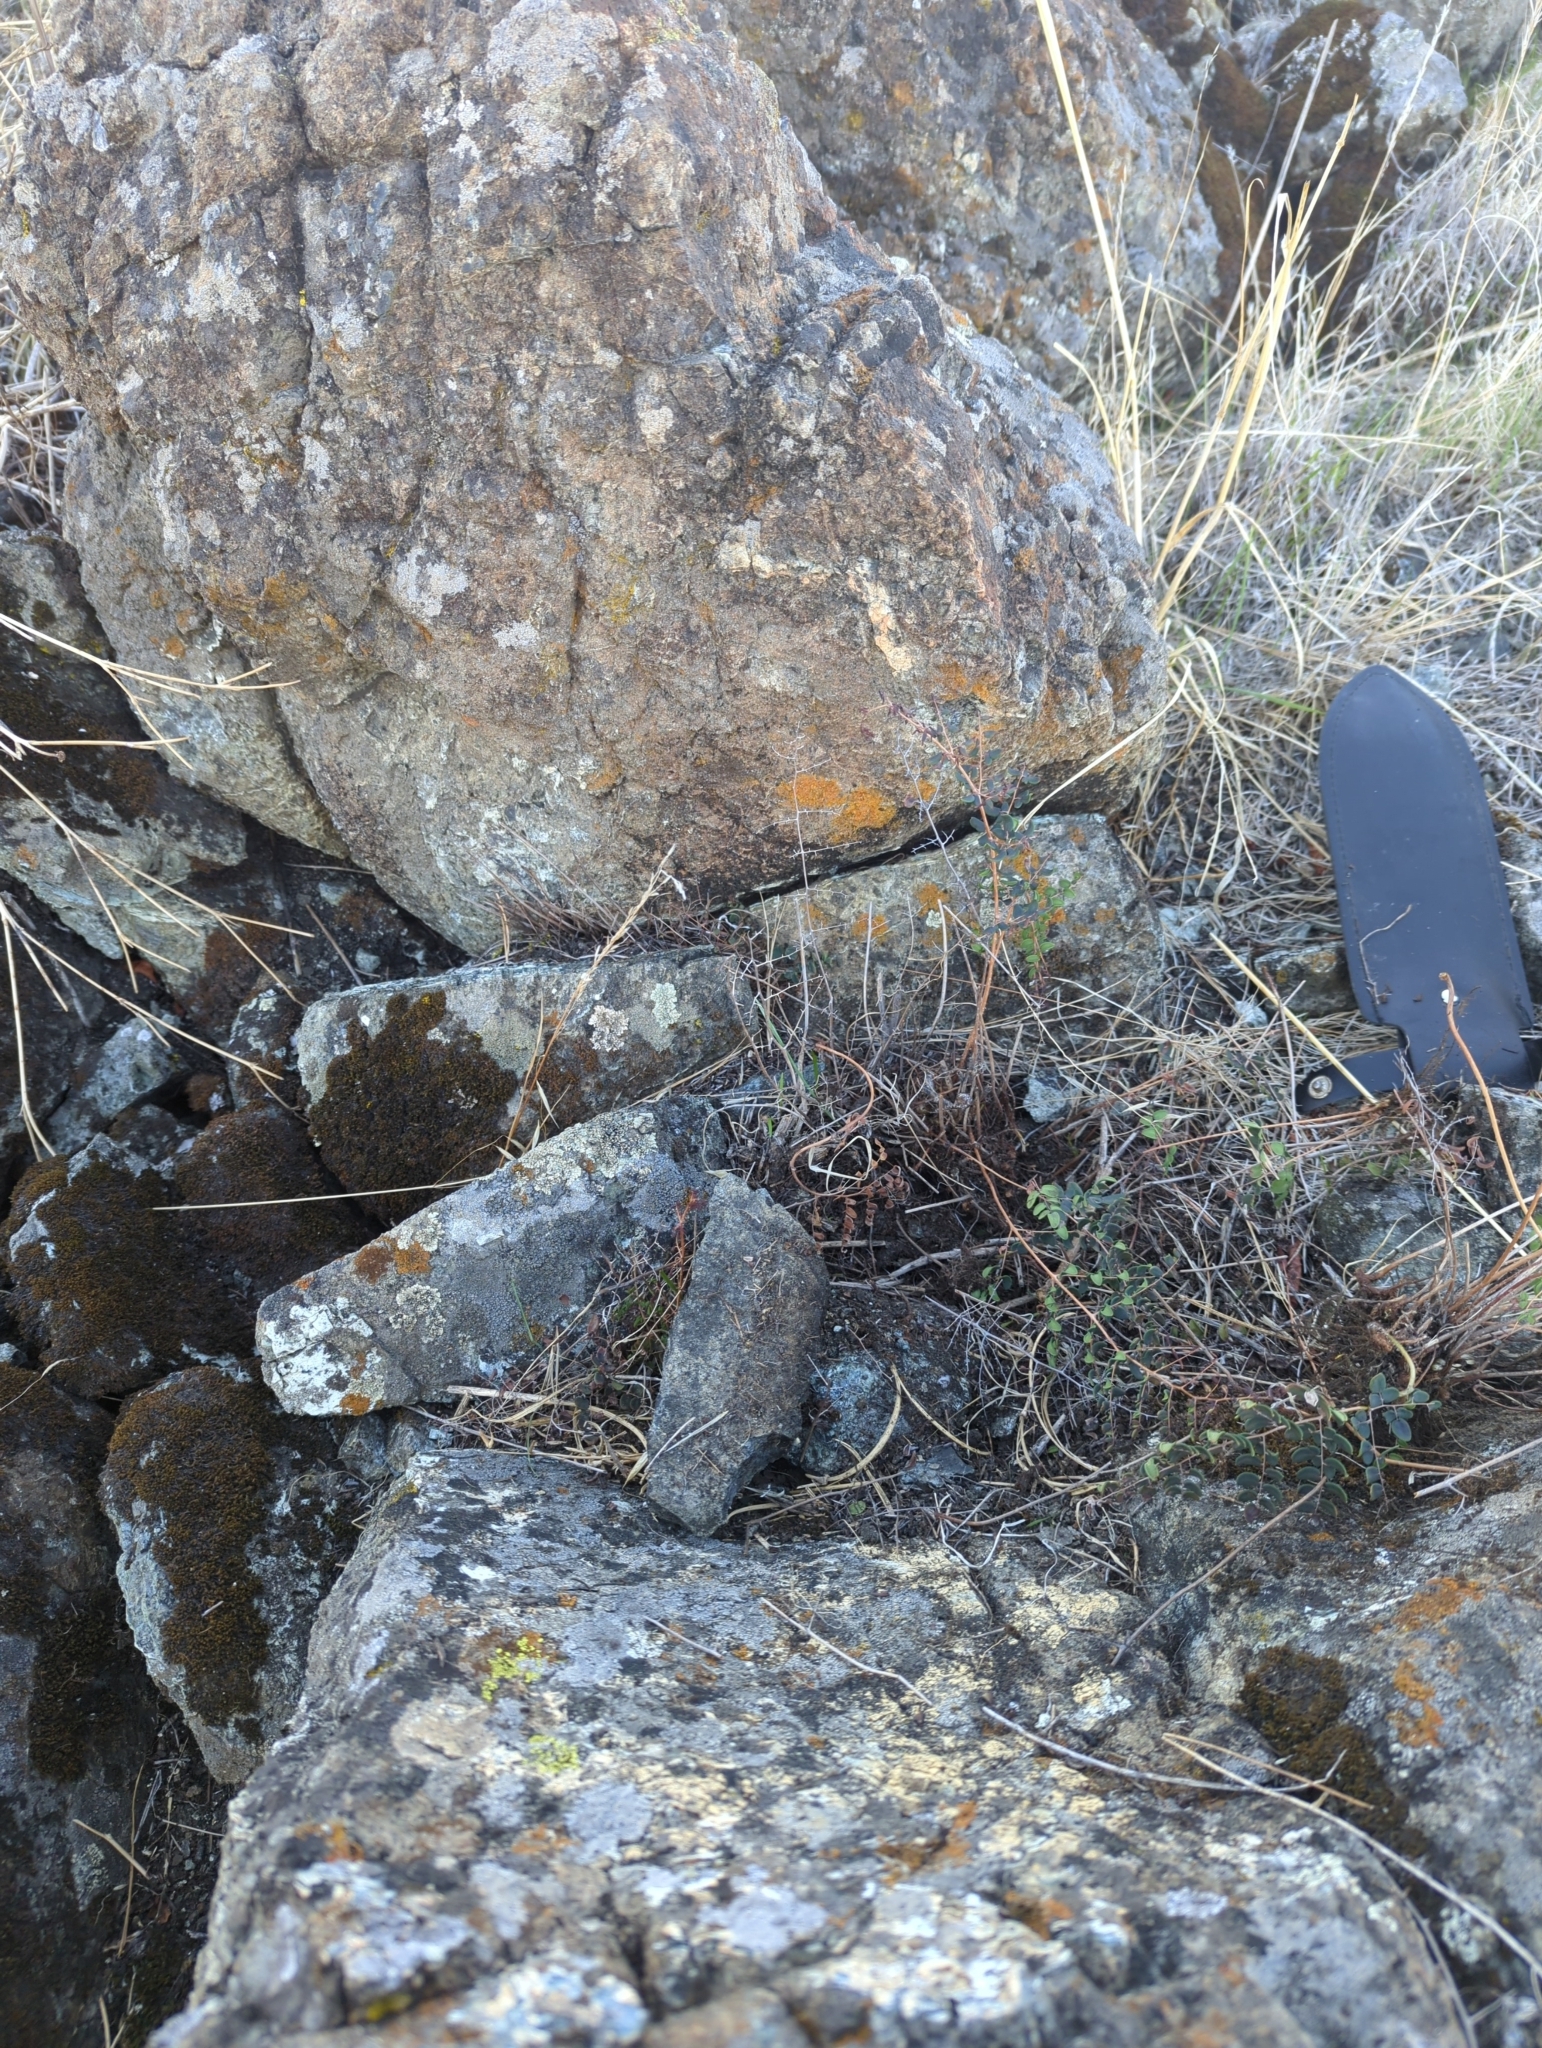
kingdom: Plantae
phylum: Tracheophyta
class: Polypodiopsida
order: Polypodiales
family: Pteridaceae
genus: Pellaea
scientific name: Pellaea andromedifolia
